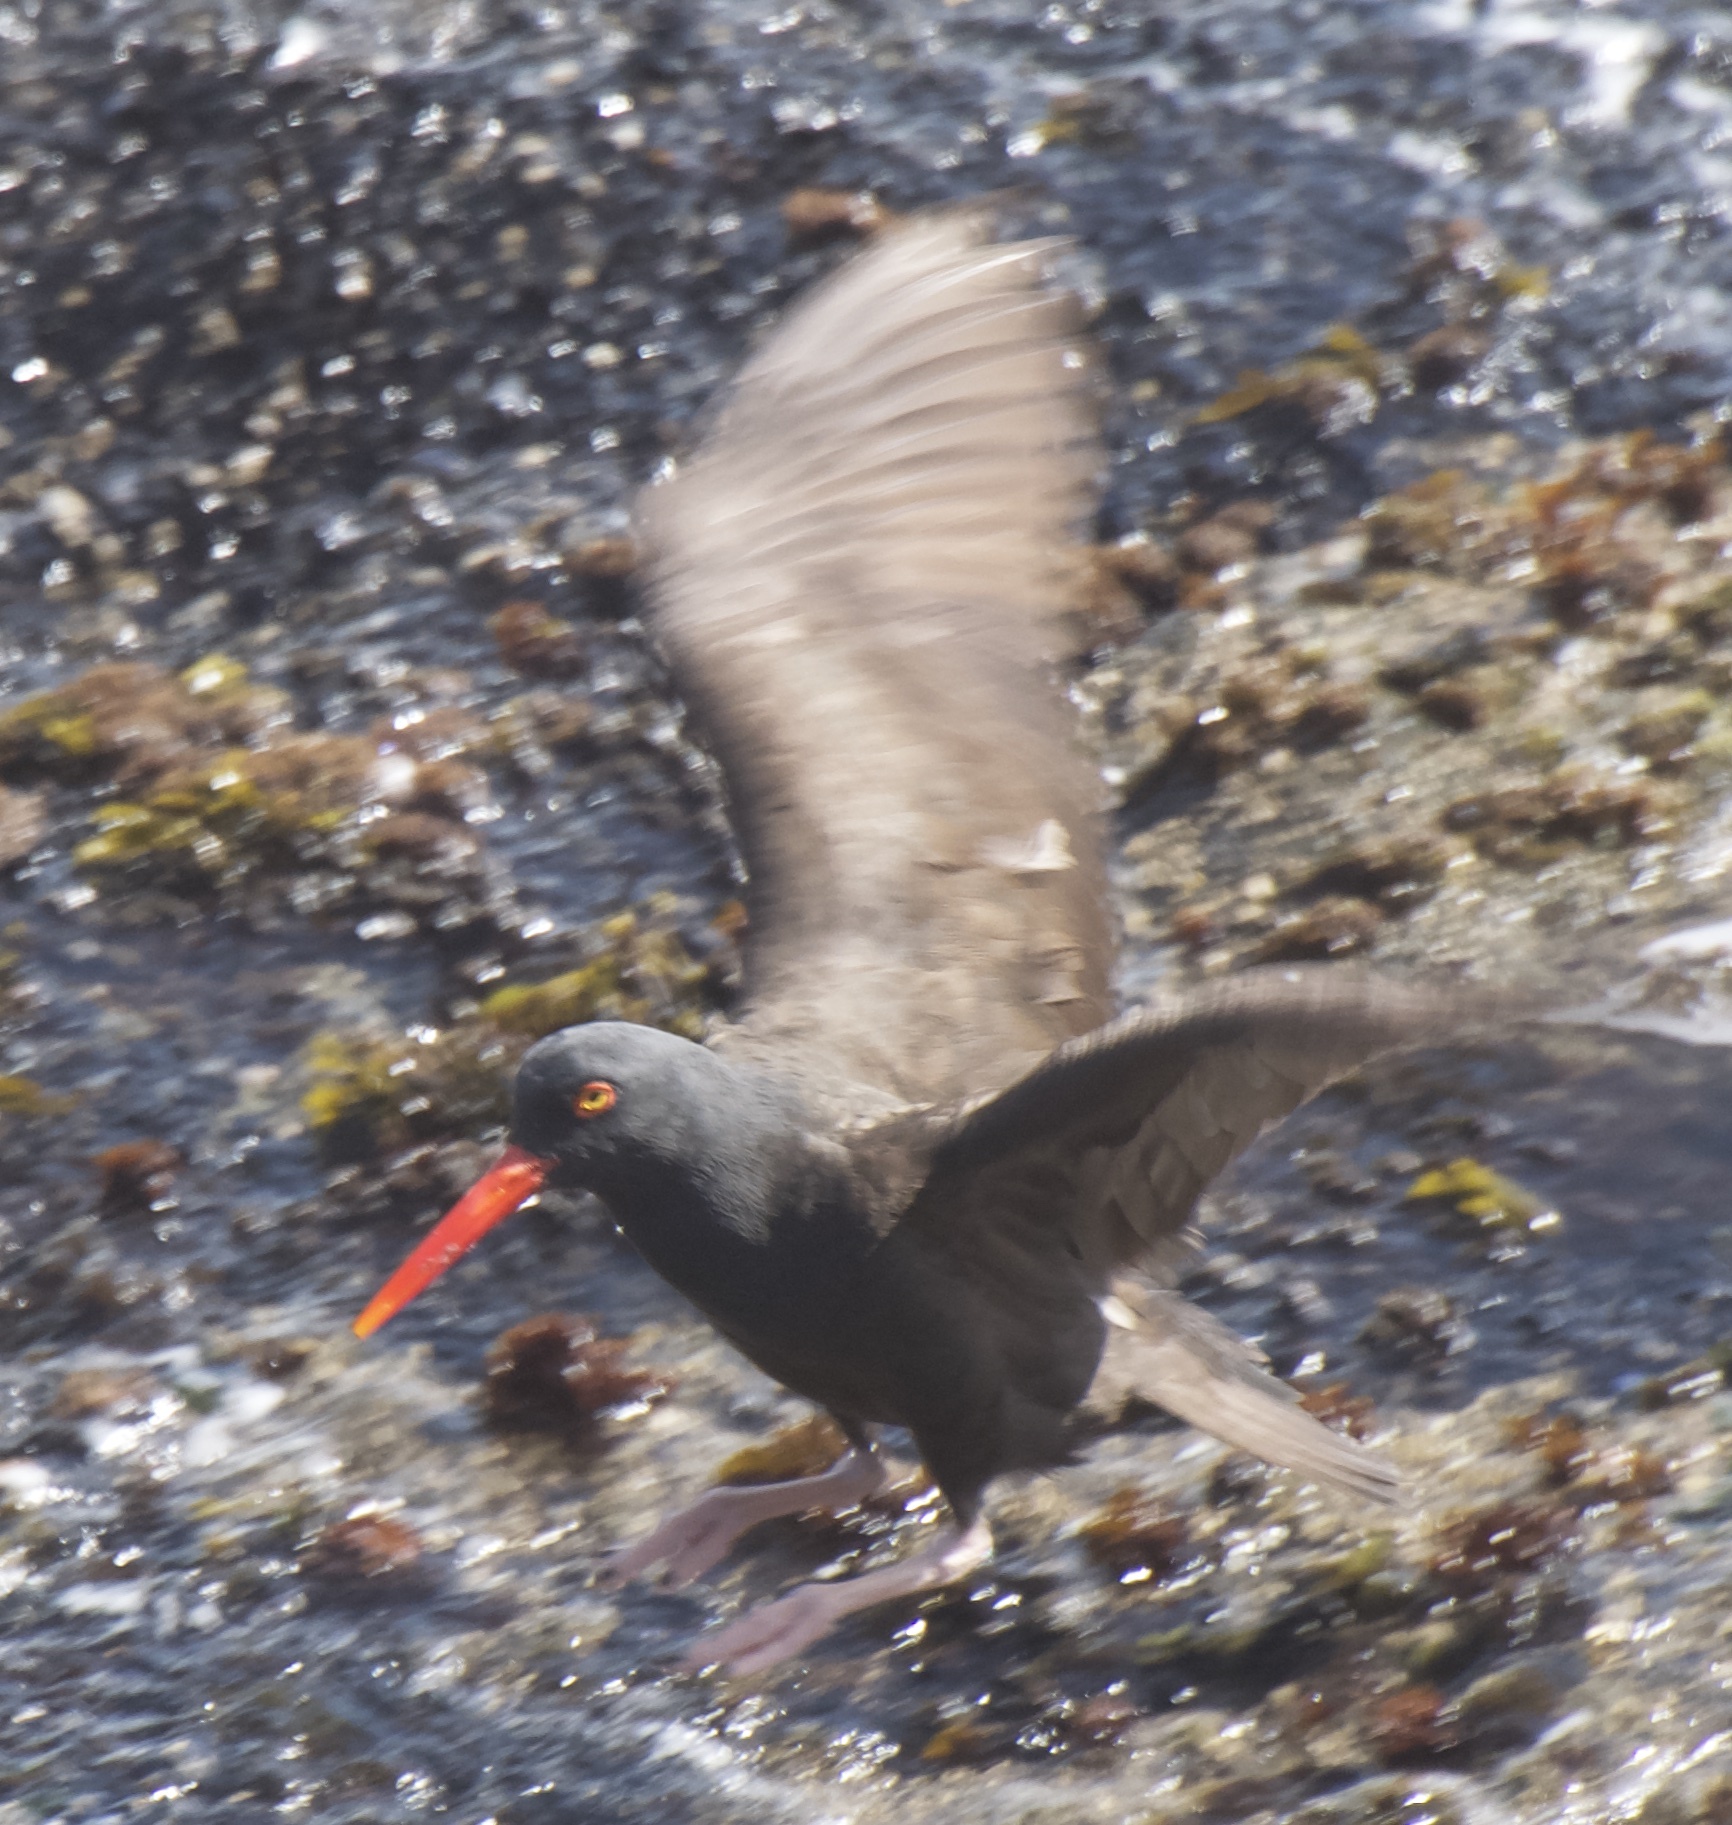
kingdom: Animalia
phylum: Chordata
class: Aves
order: Charadriiformes
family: Haematopodidae
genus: Haematopus
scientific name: Haematopus bachmani
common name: Black oystercatcher
